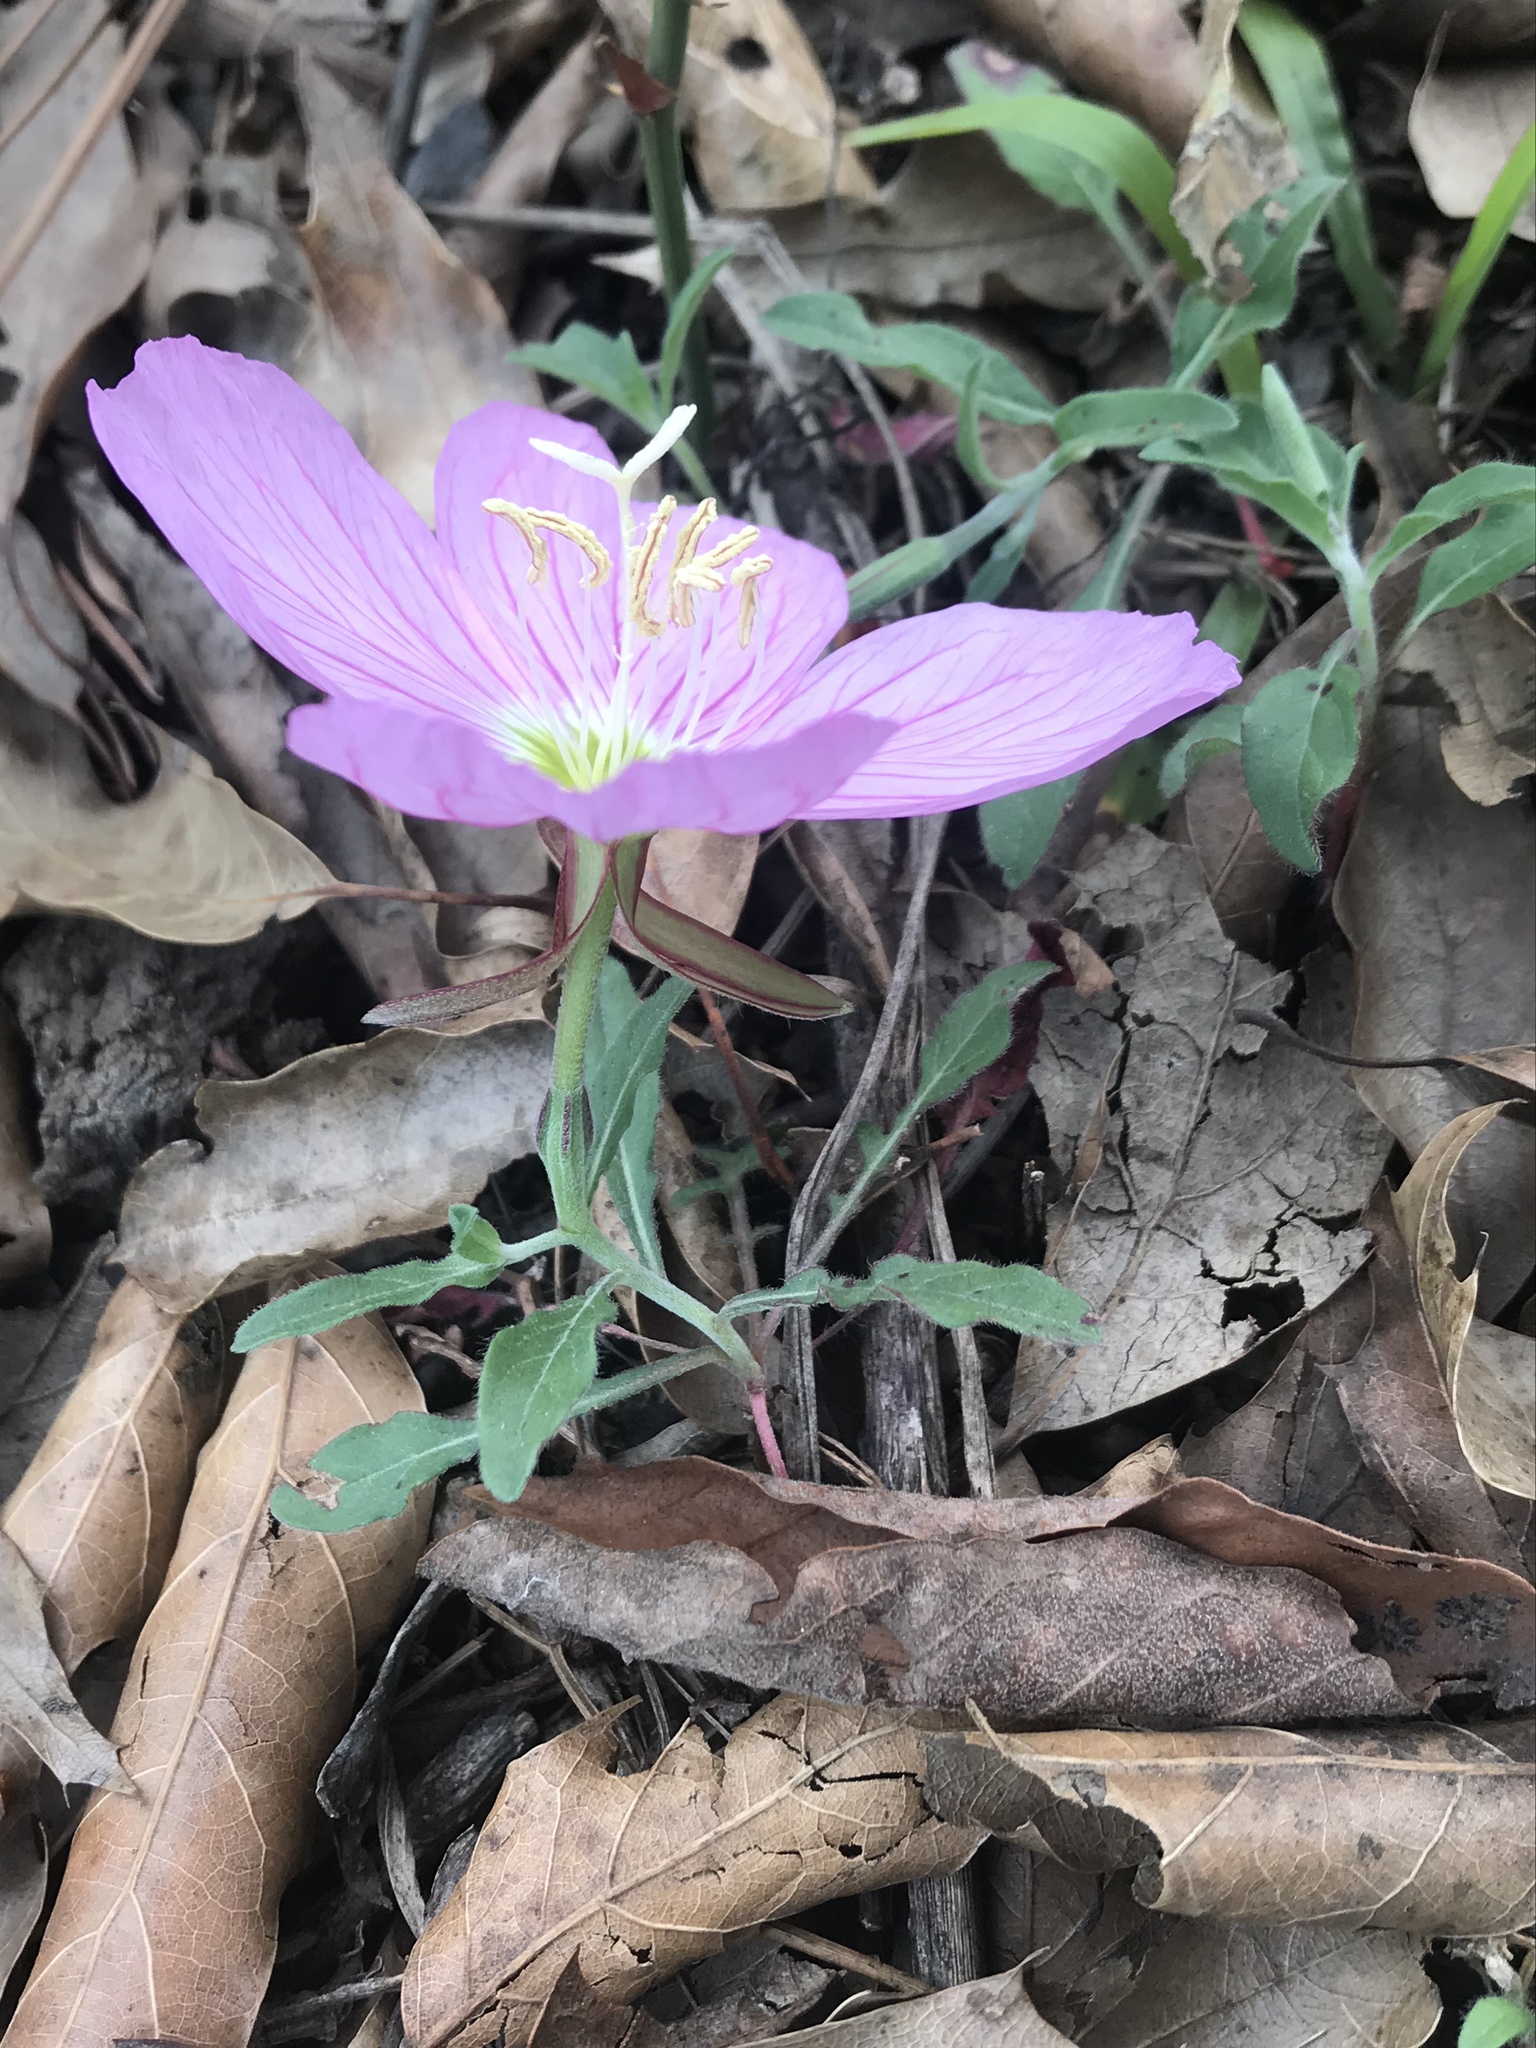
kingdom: Plantae
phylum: Tracheophyta
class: Magnoliopsida
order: Myrtales
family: Onagraceae
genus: Oenothera
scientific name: Oenothera speciosa
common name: White evening-primrose
